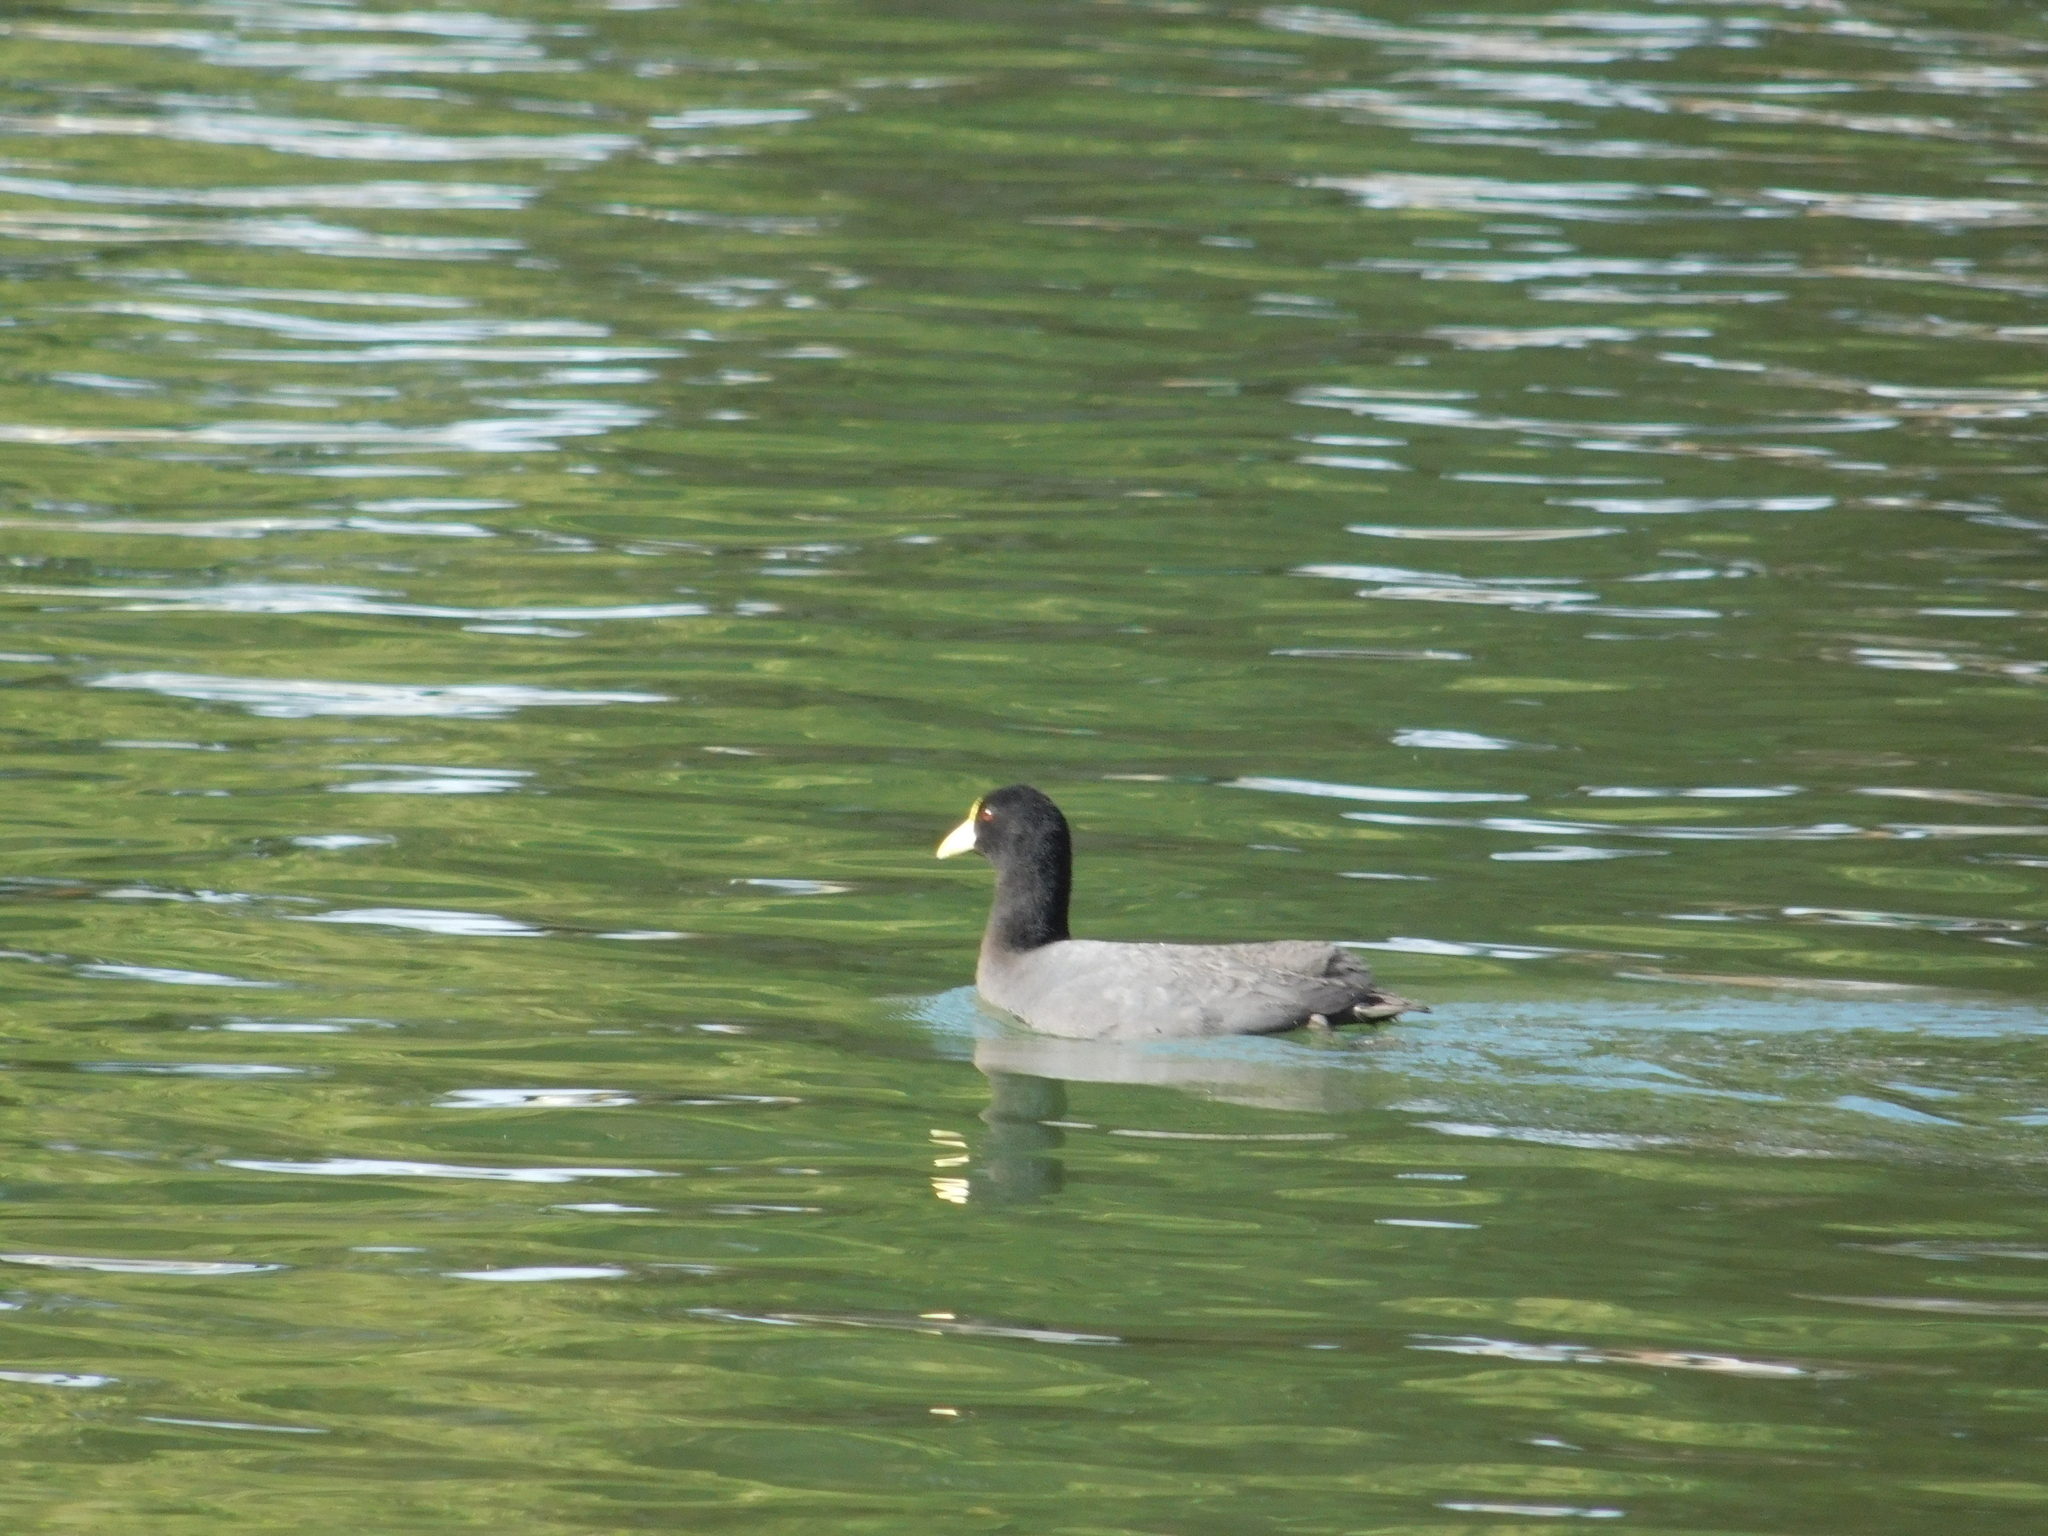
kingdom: Animalia
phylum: Chordata
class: Aves
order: Gruiformes
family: Rallidae
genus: Fulica
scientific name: Fulica leucoptera
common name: White-winged coot
